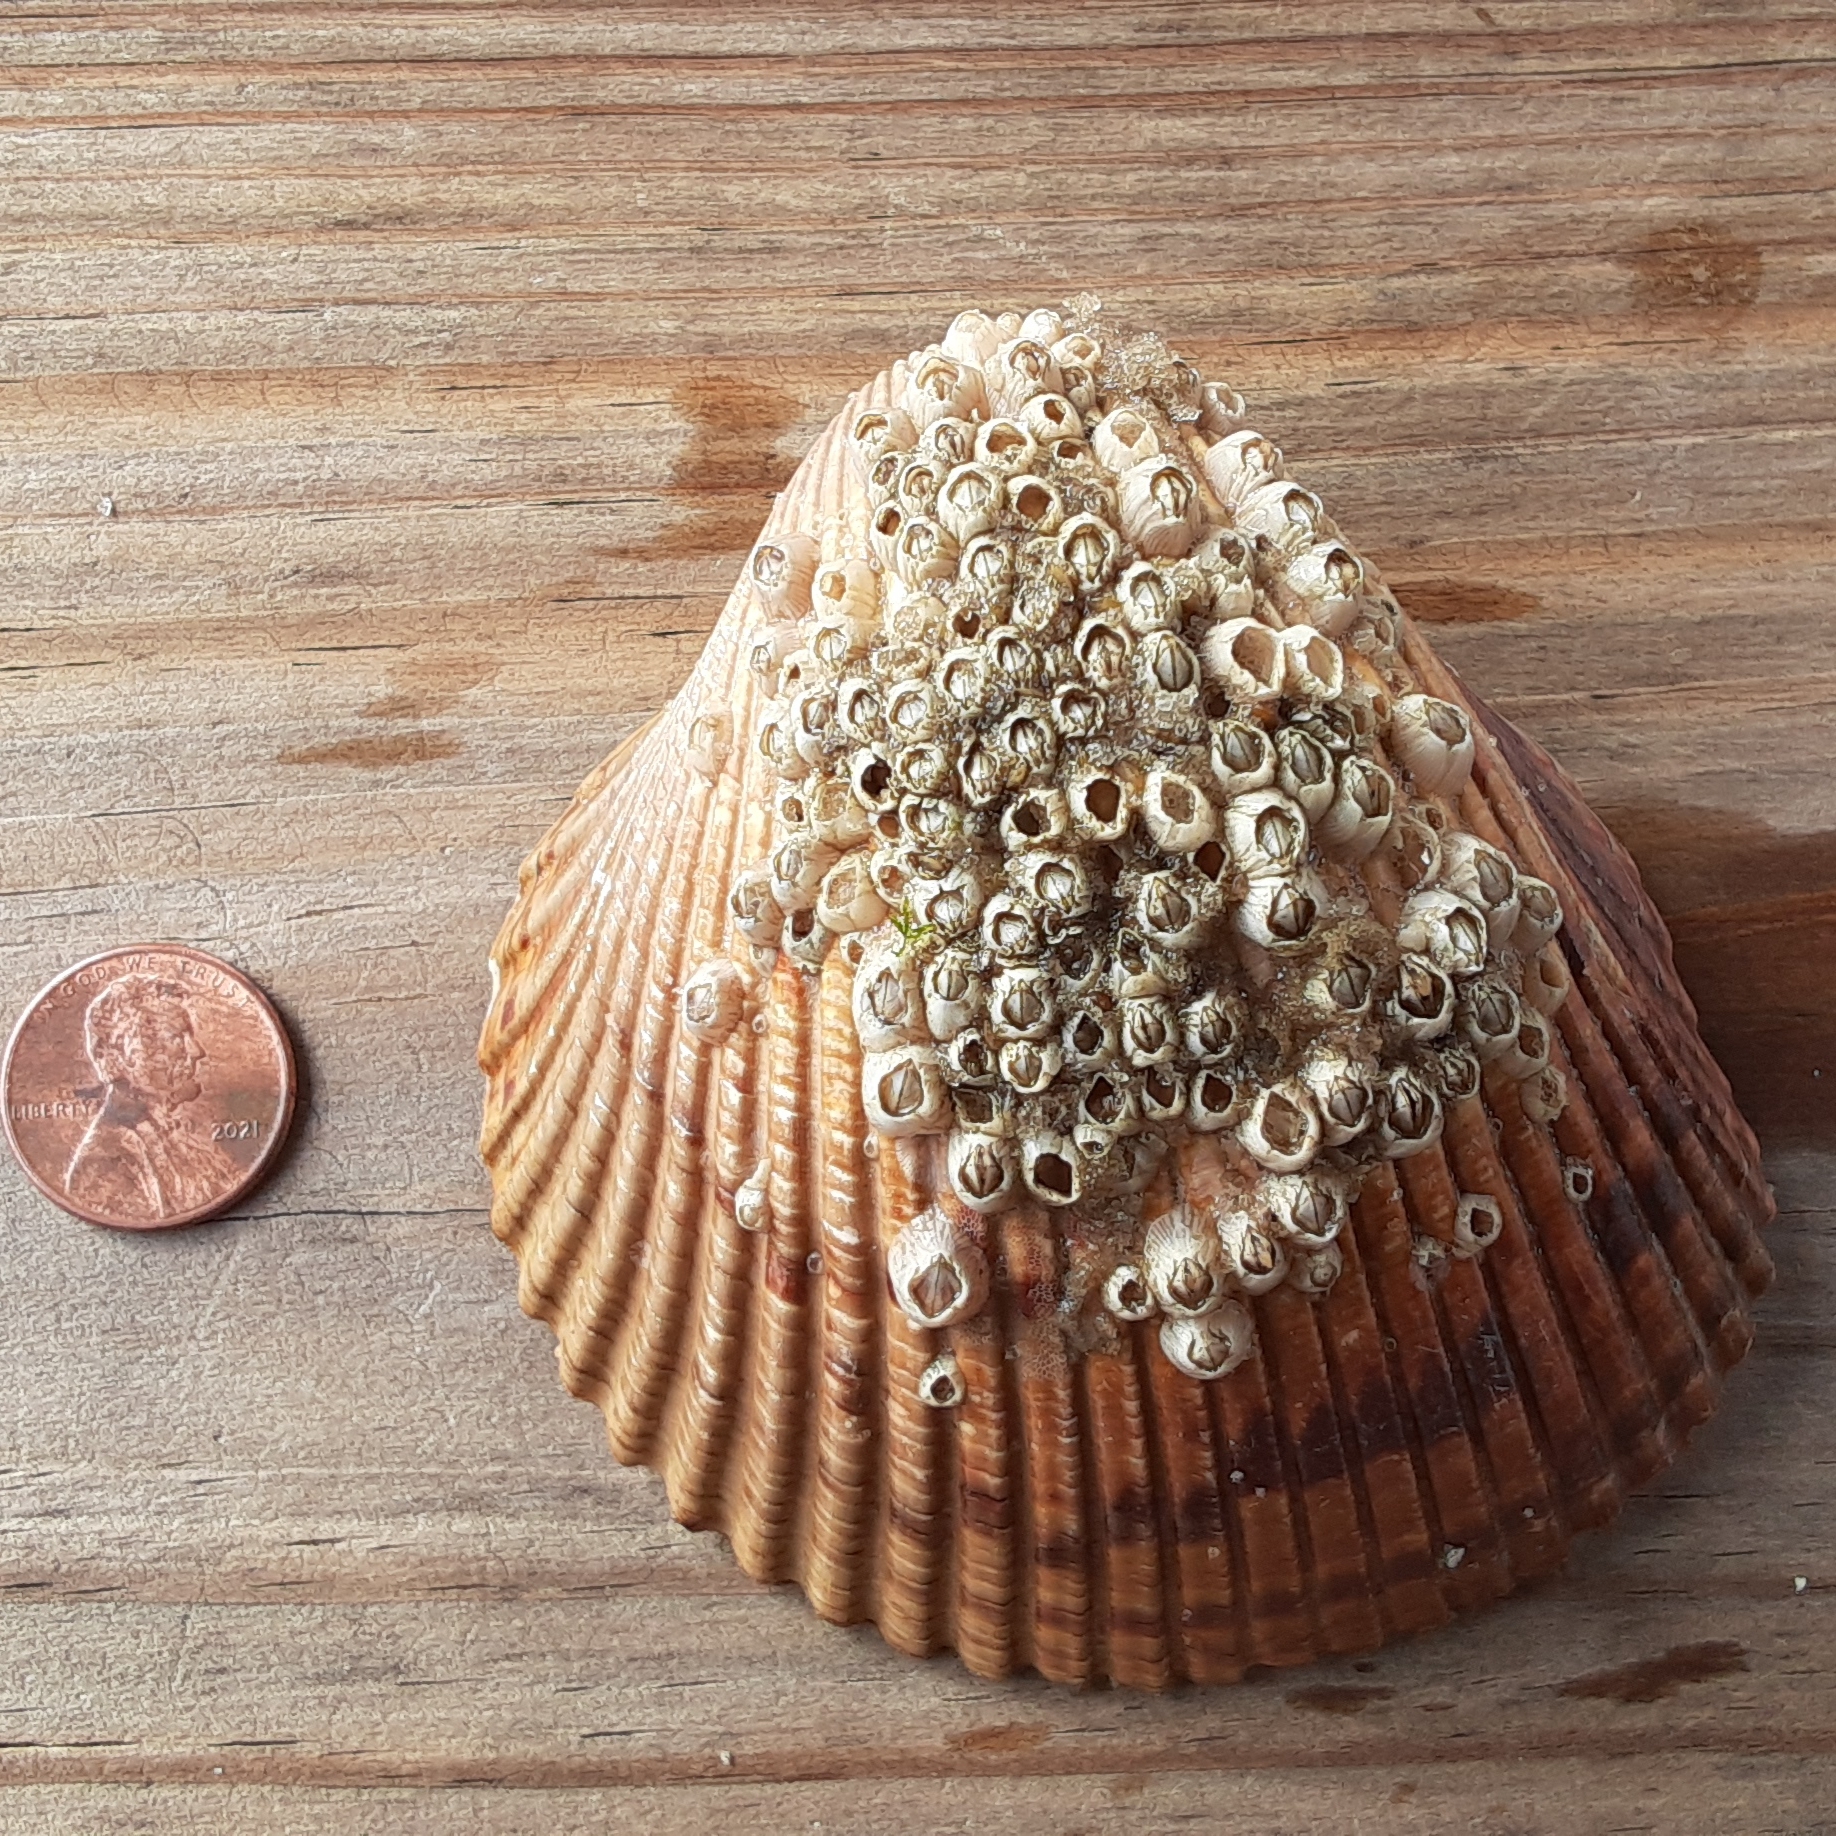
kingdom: Animalia
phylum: Mollusca
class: Bivalvia
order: Cardiida
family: Cardiidae
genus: Dinocardium
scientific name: Dinocardium robustum
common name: Atlantic giant cockle
